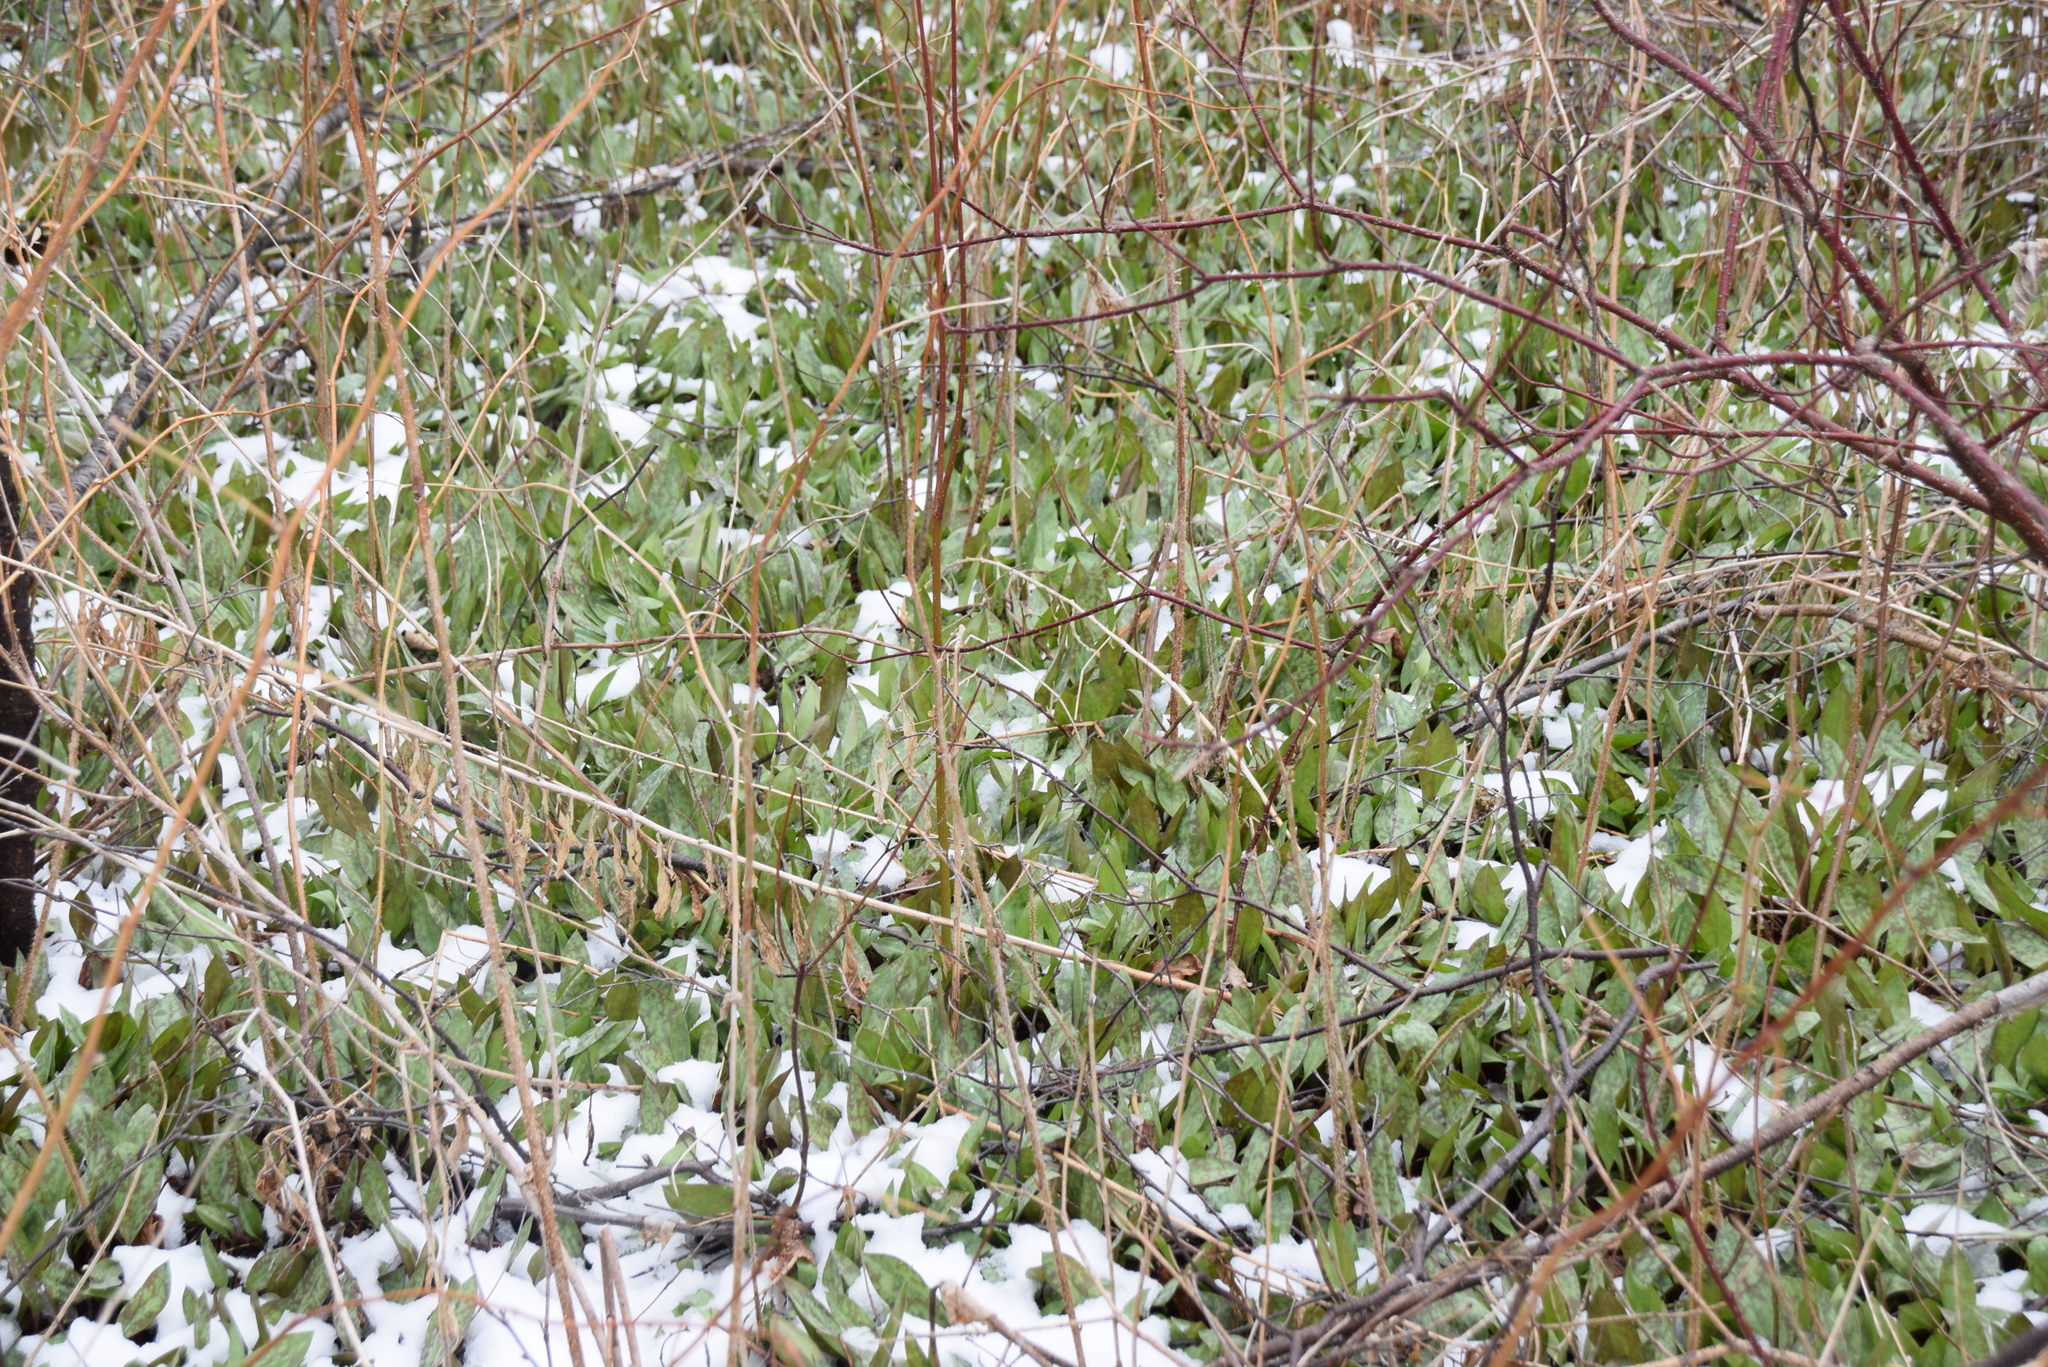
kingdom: Plantae
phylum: Tracheophyta
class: Liliopsida
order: Liliales
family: Liliaceae
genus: Erythronium
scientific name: Erythronium americanum
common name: Yellow adder's-tongue
